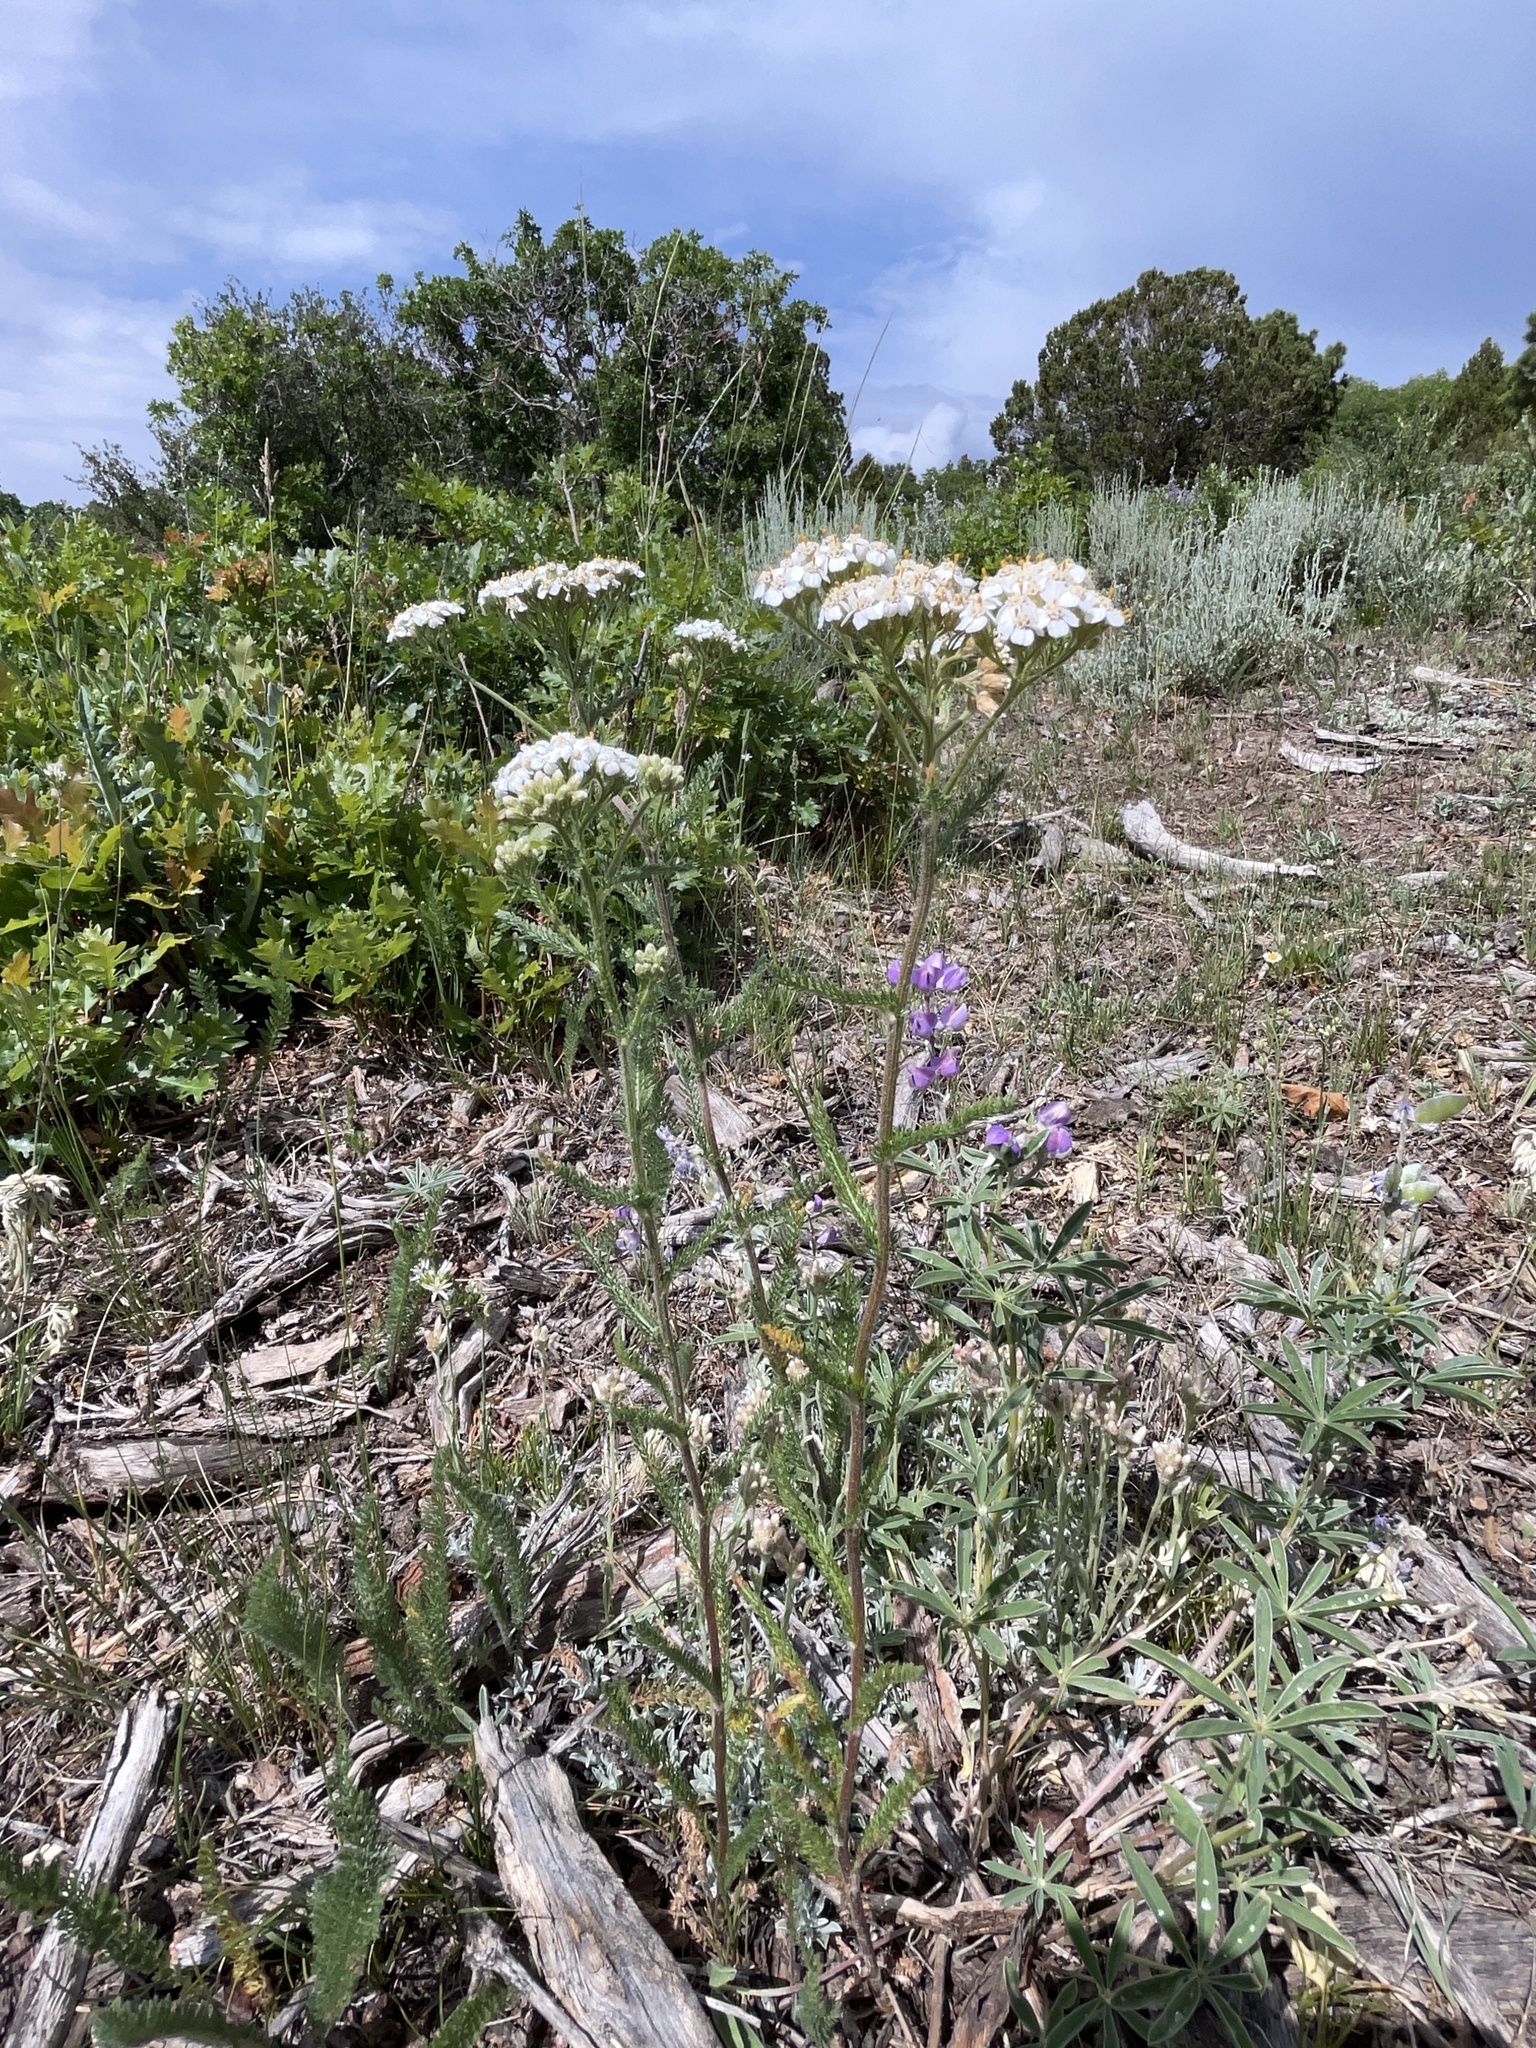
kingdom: Plantae
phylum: Tracheophyta
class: Magnoliopsida
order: Asterales
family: Asteraceae
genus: Achillea
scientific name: Achillea millefolium
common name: Yarrow
